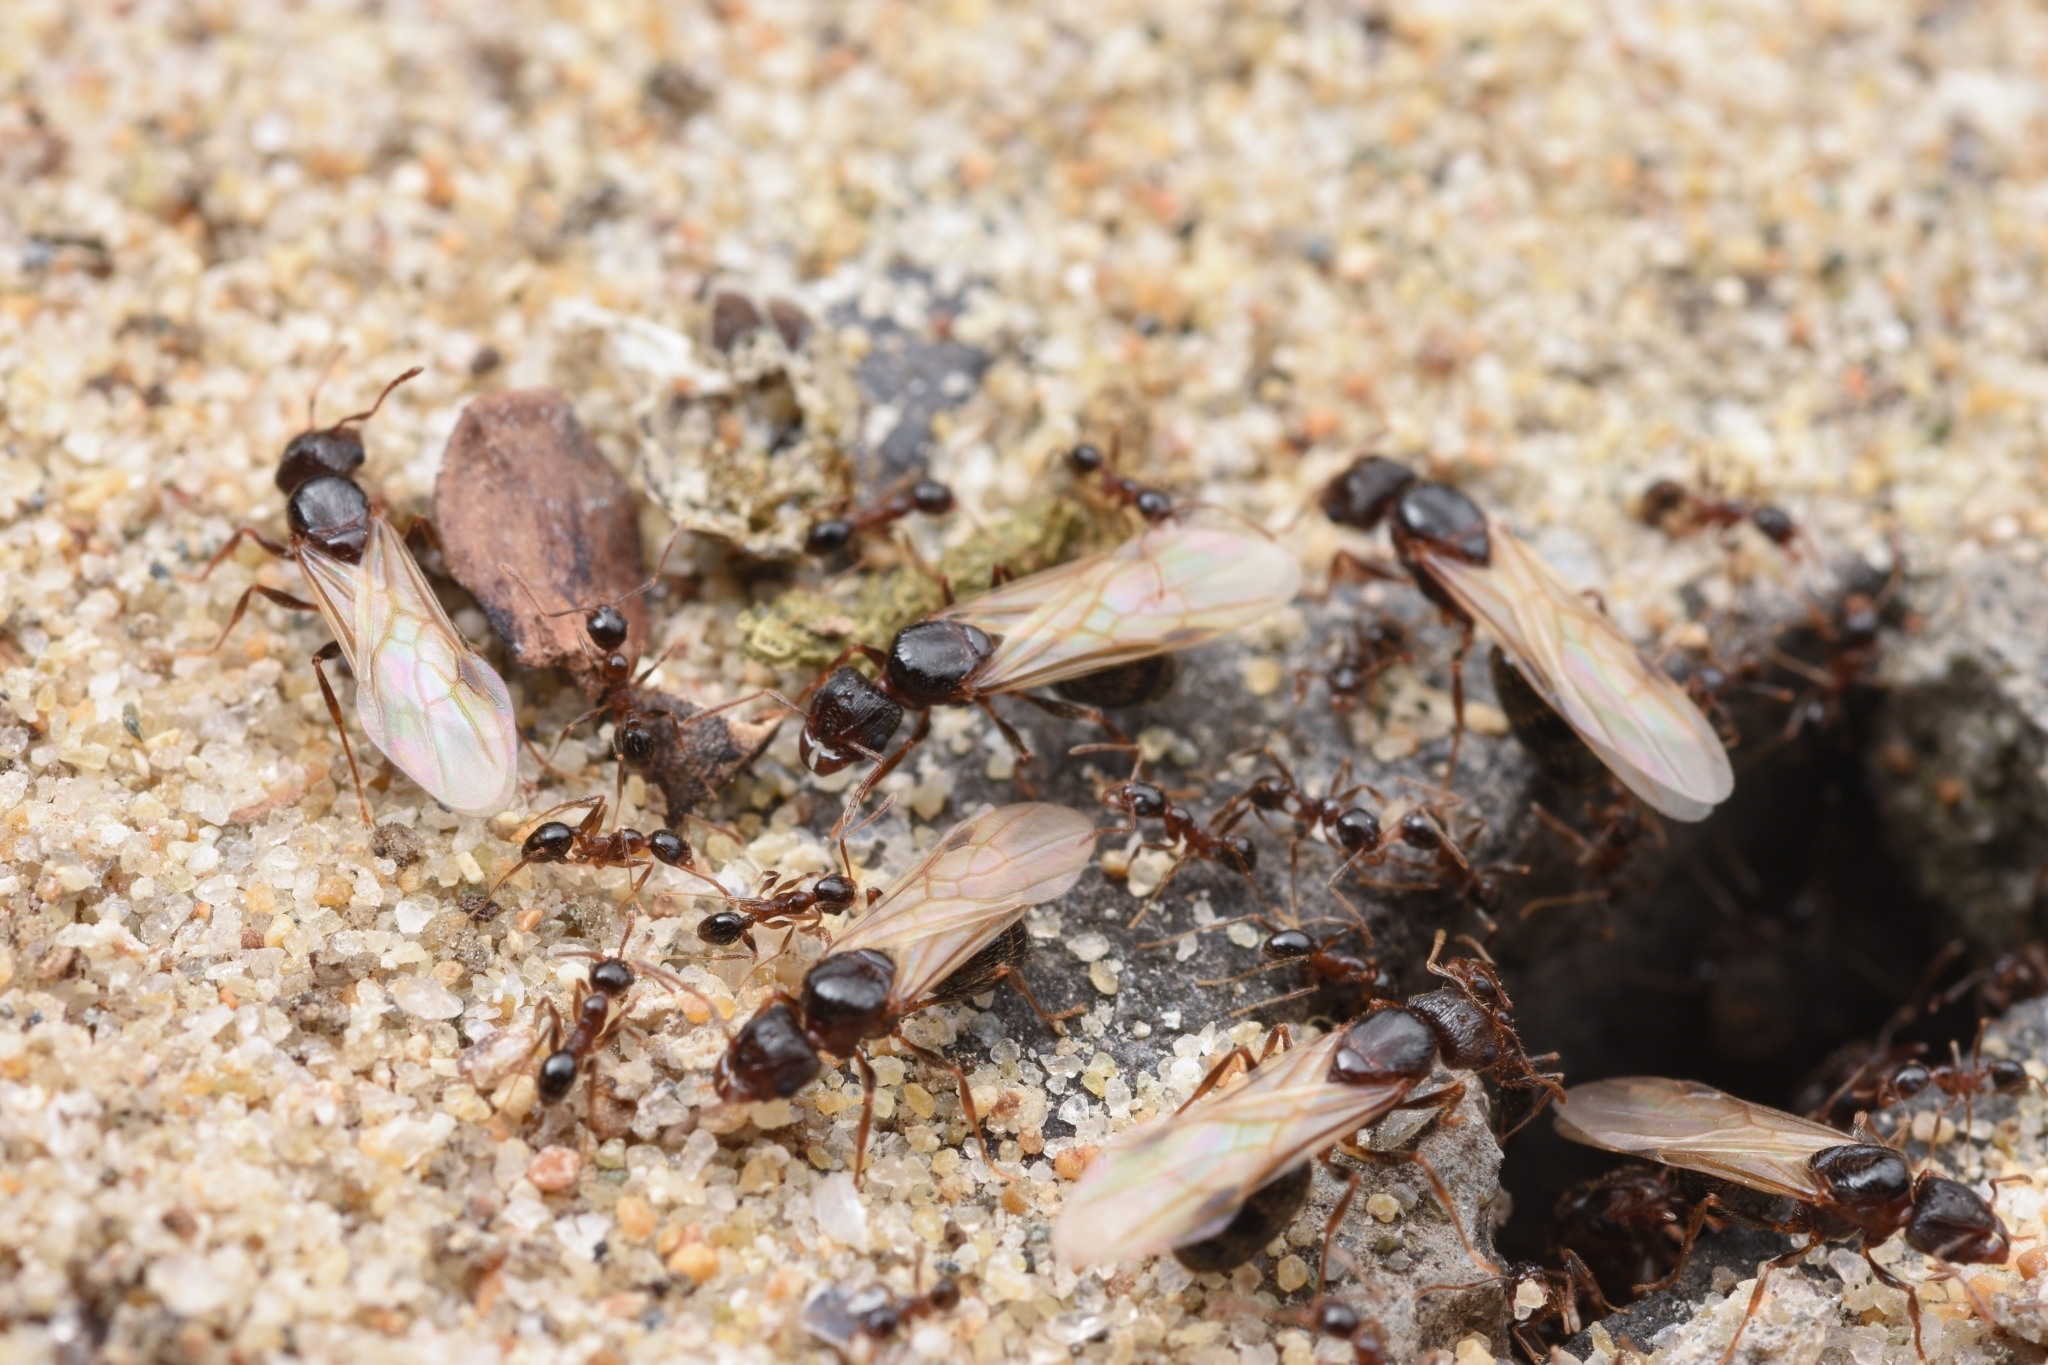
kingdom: Animalia
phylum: Arthropoda
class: Insecta
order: Hymenoptera
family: Formicidae
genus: Pheidole
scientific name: Pheidole indica
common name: Big-headed ant
